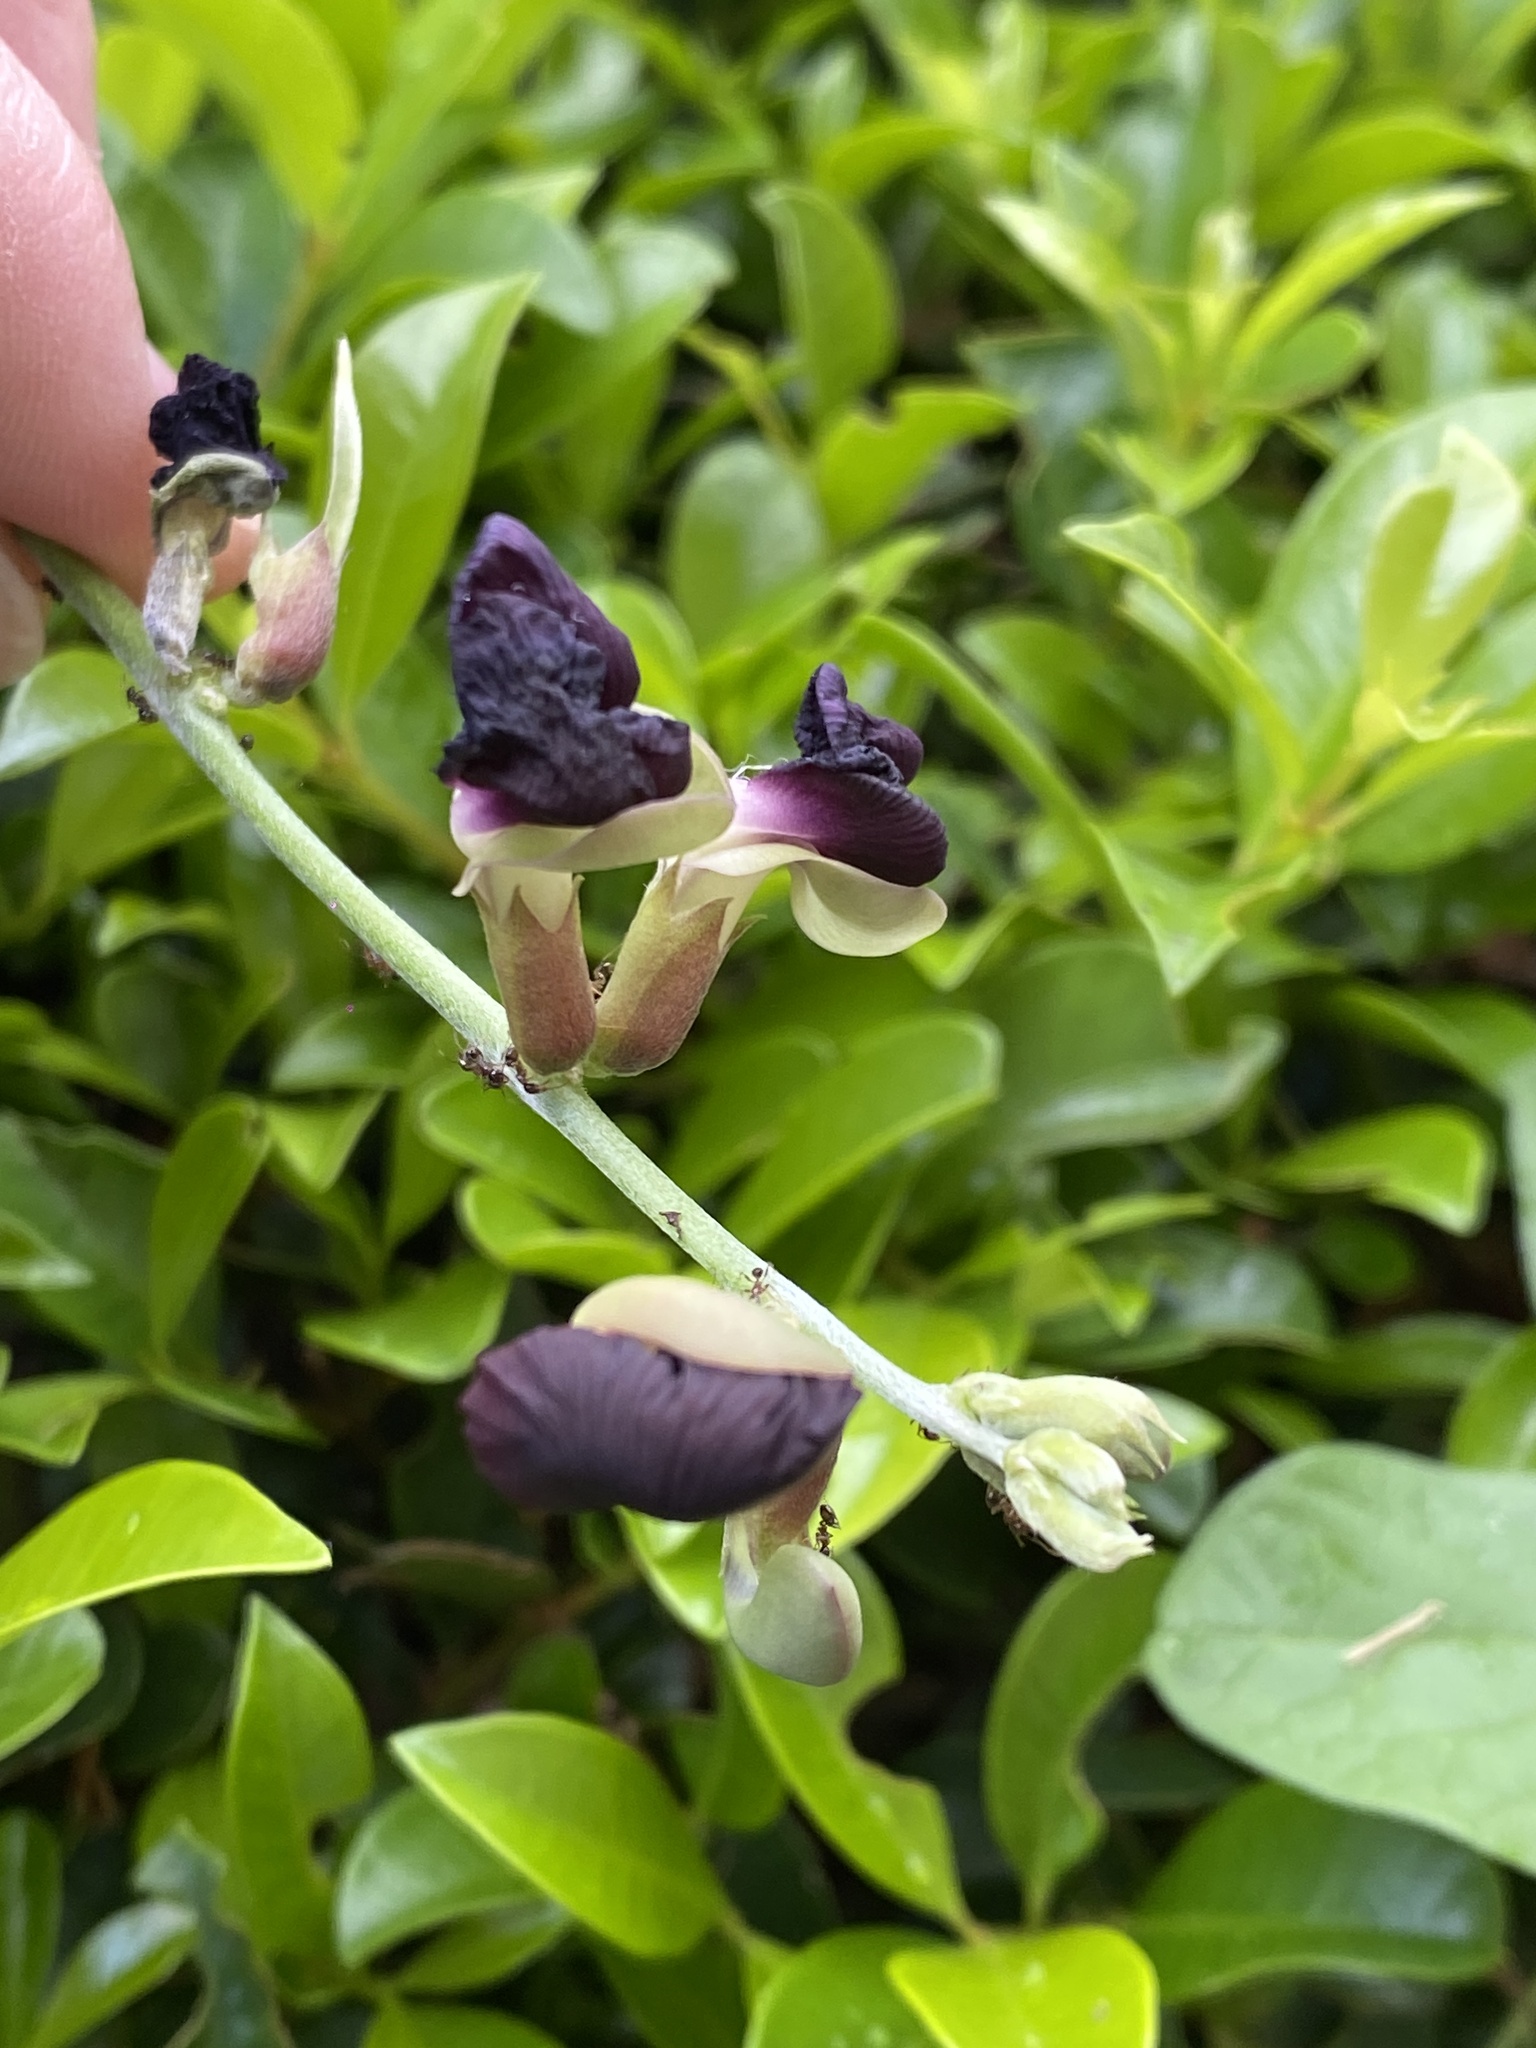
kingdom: Plantae
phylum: Tracheophyta
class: Magnoliopsida
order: Fabales
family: Fabaceae
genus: Macroptilium
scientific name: Macroptilium atropurpureum
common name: Purple bushbean
